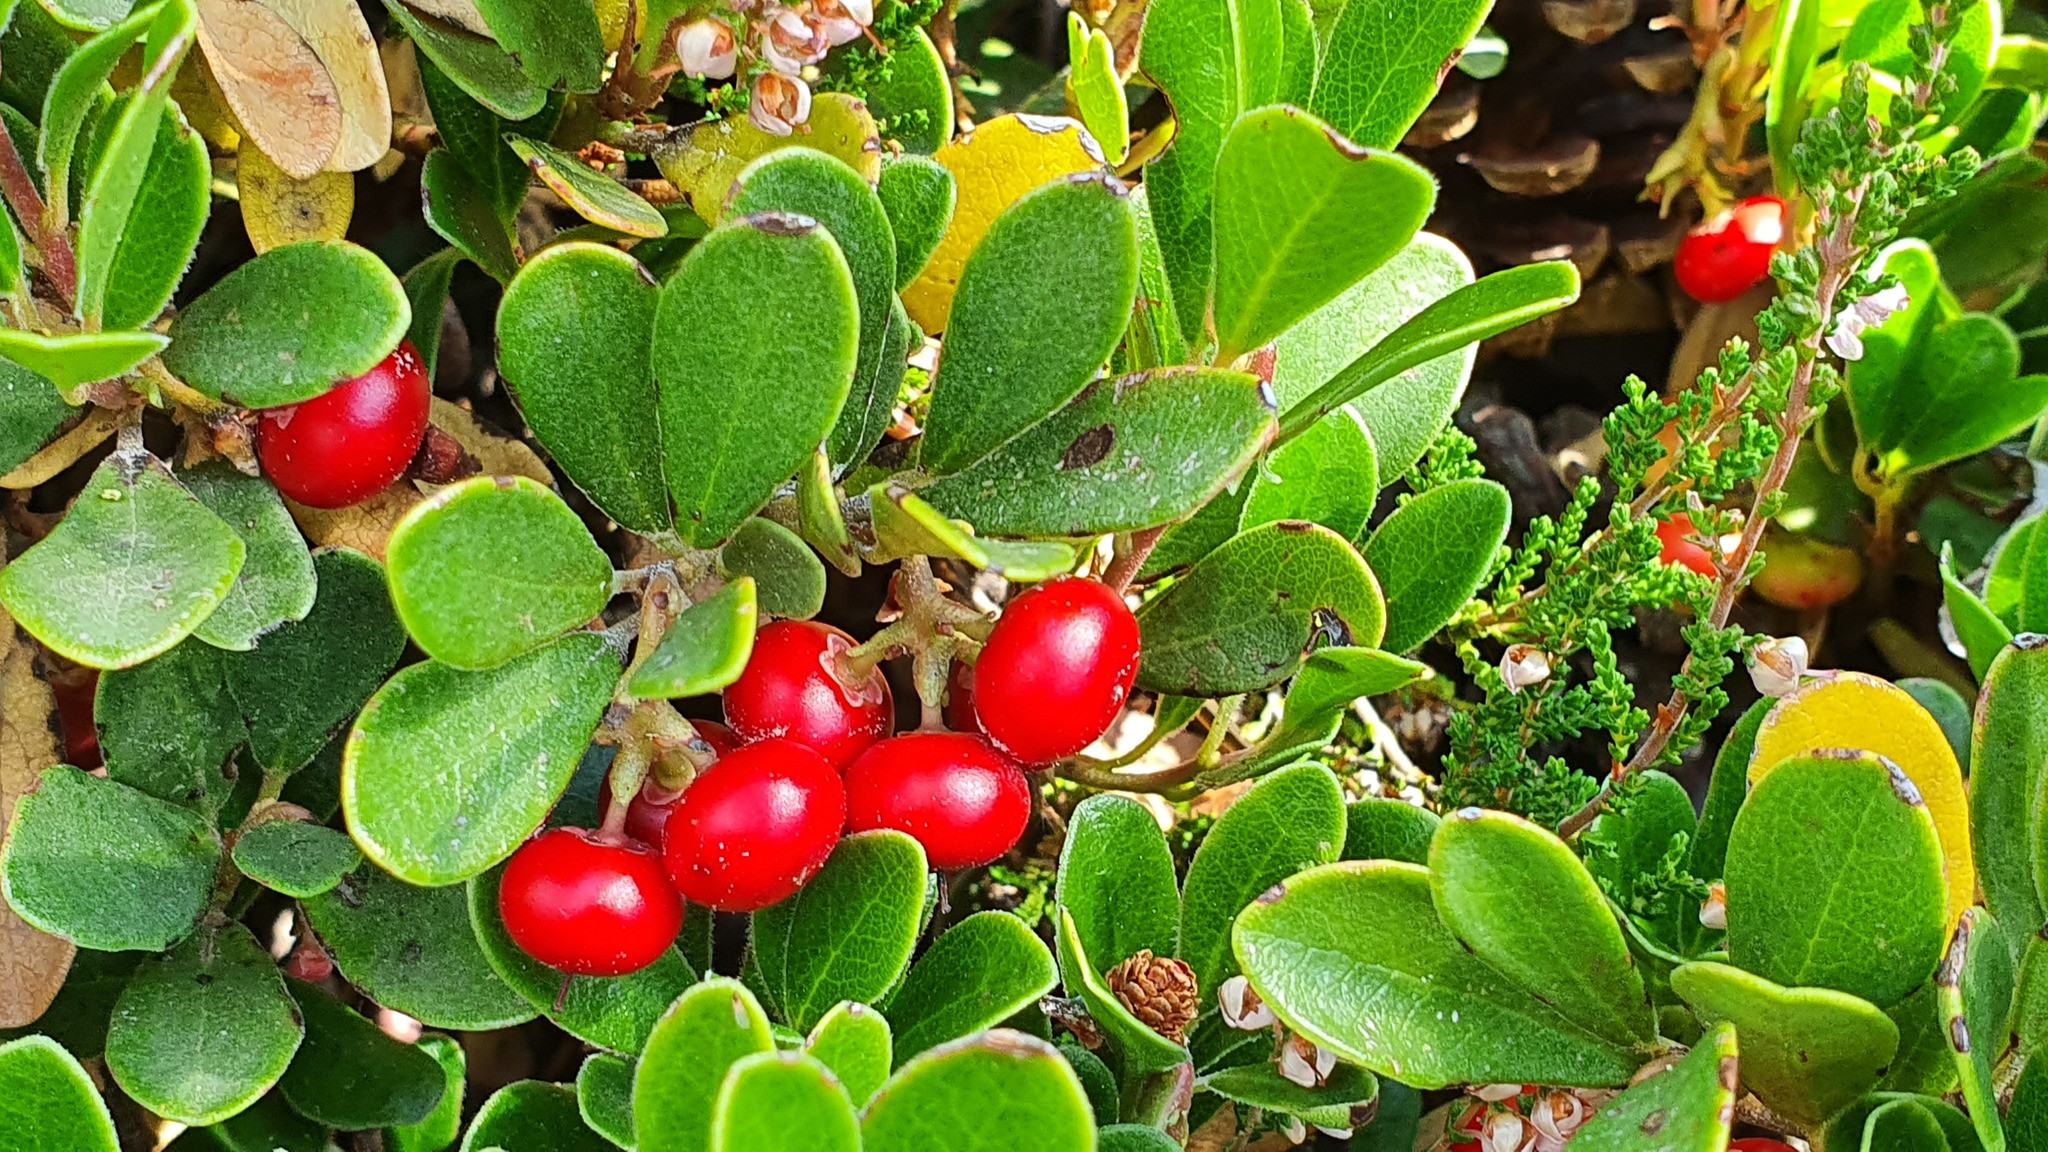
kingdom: Plantae
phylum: Tracheophyta
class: Magnoliopsida
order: Ericales
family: Ericaceae
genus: Arctostaphylos
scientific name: Arctostaphylos uva-ursi
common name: Bearberry
